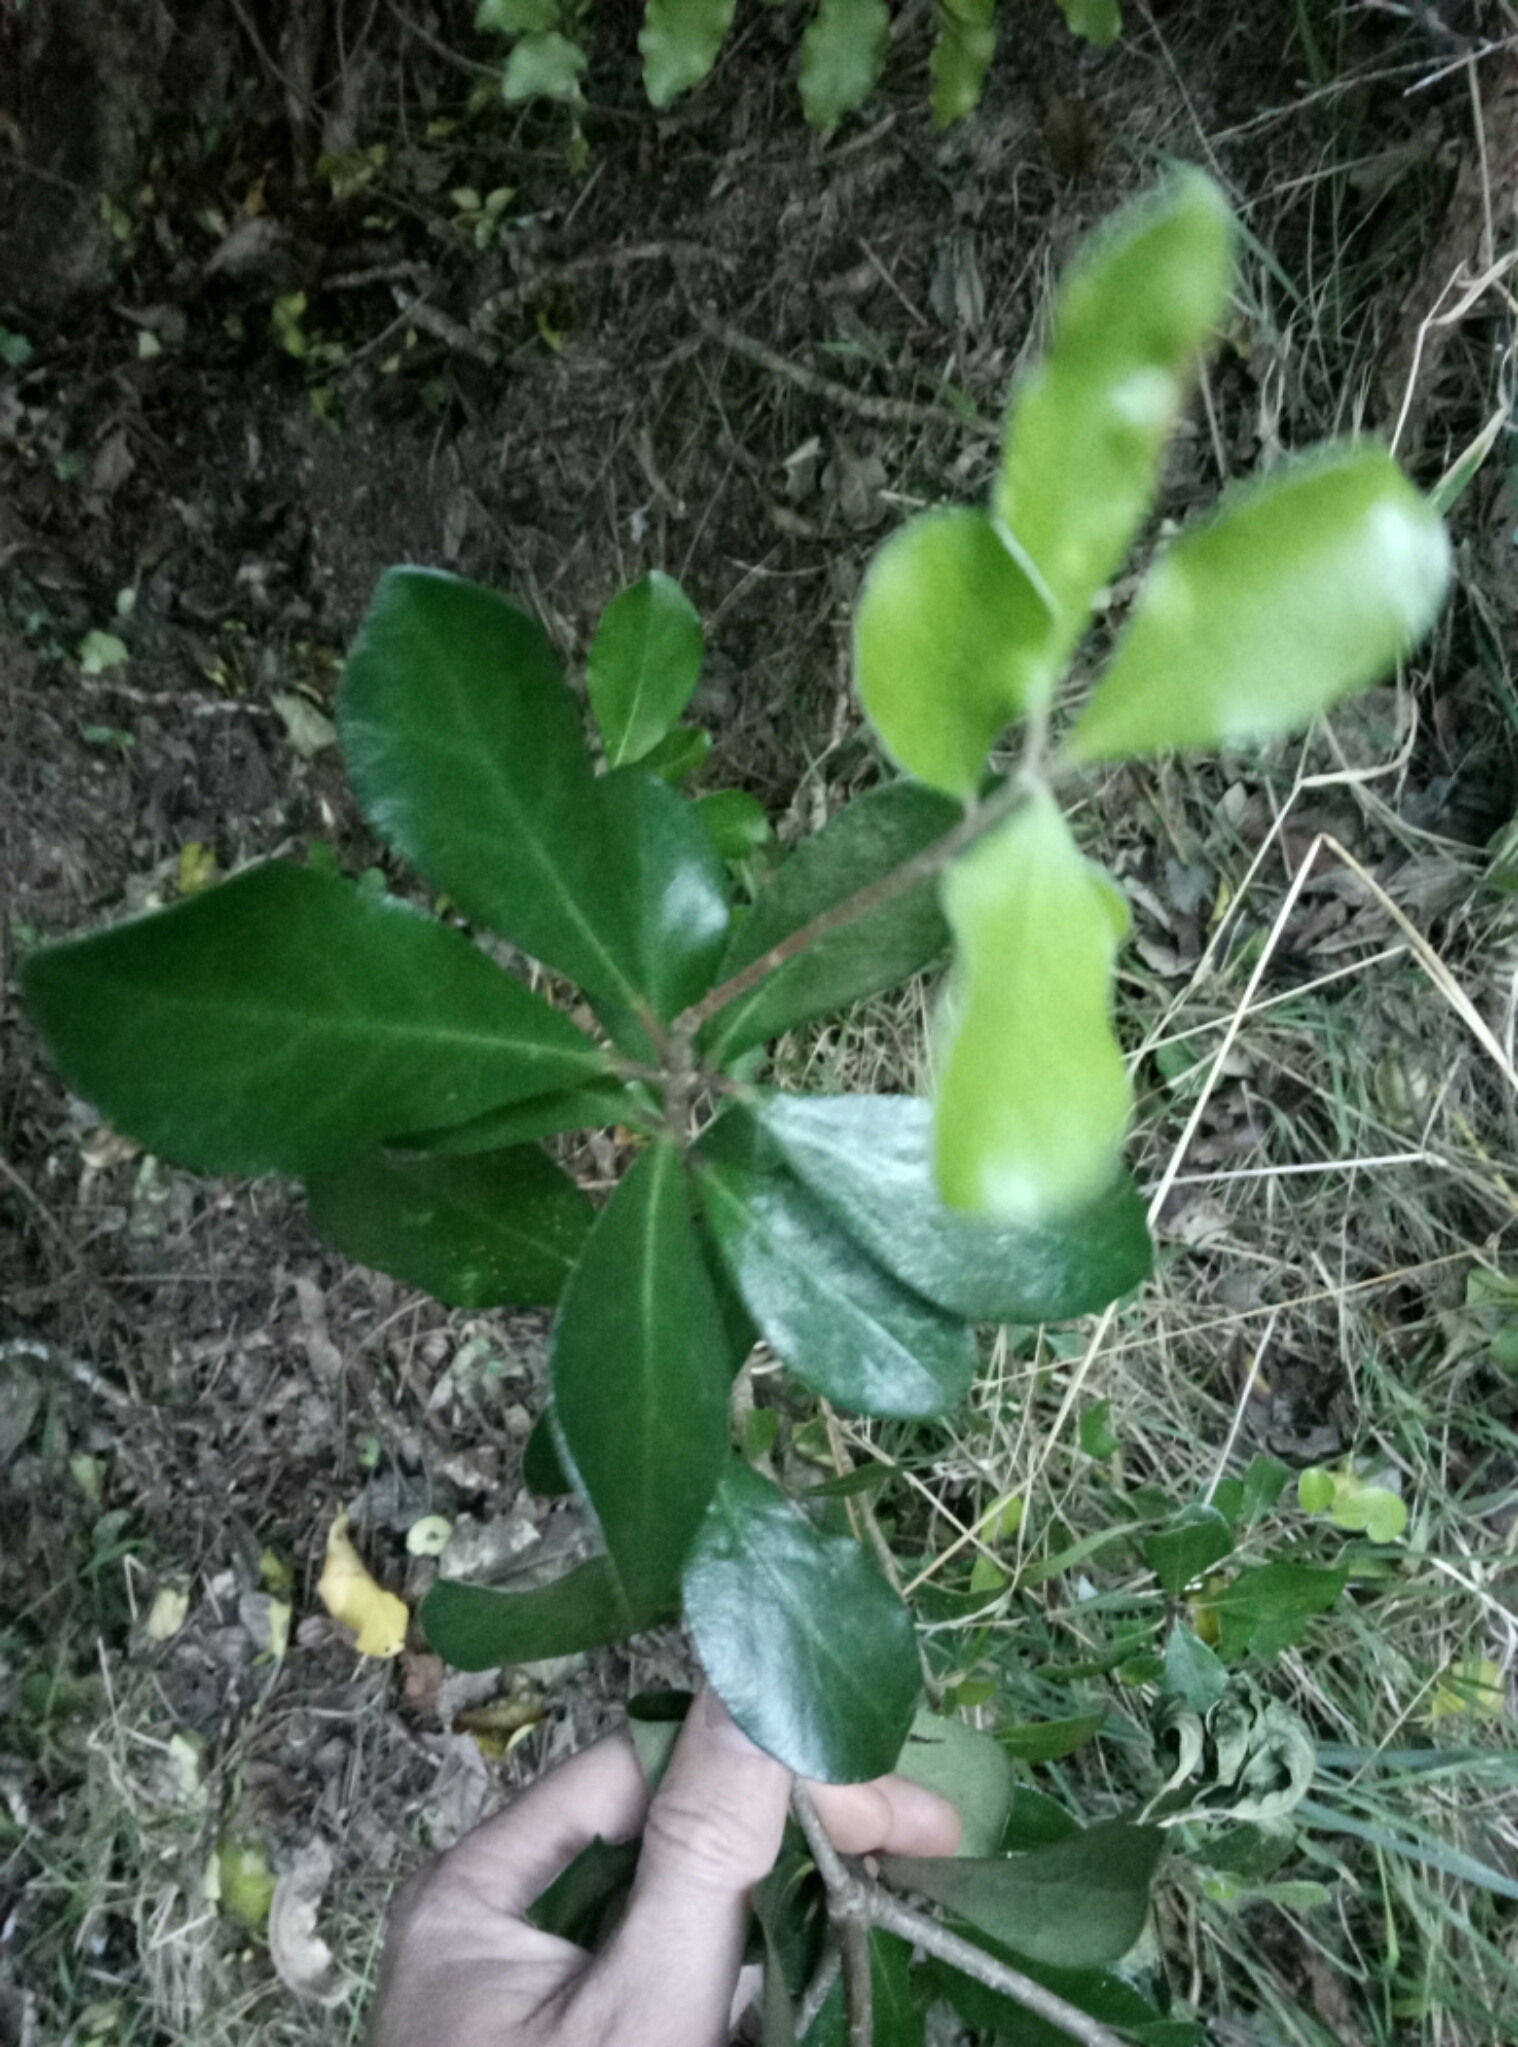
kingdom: Plantae
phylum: Tracheophyta
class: Magnoliopsida
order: Apiales
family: Pittosporaceae
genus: Pittosporum
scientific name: Pittosporum crassifolium
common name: Karo
